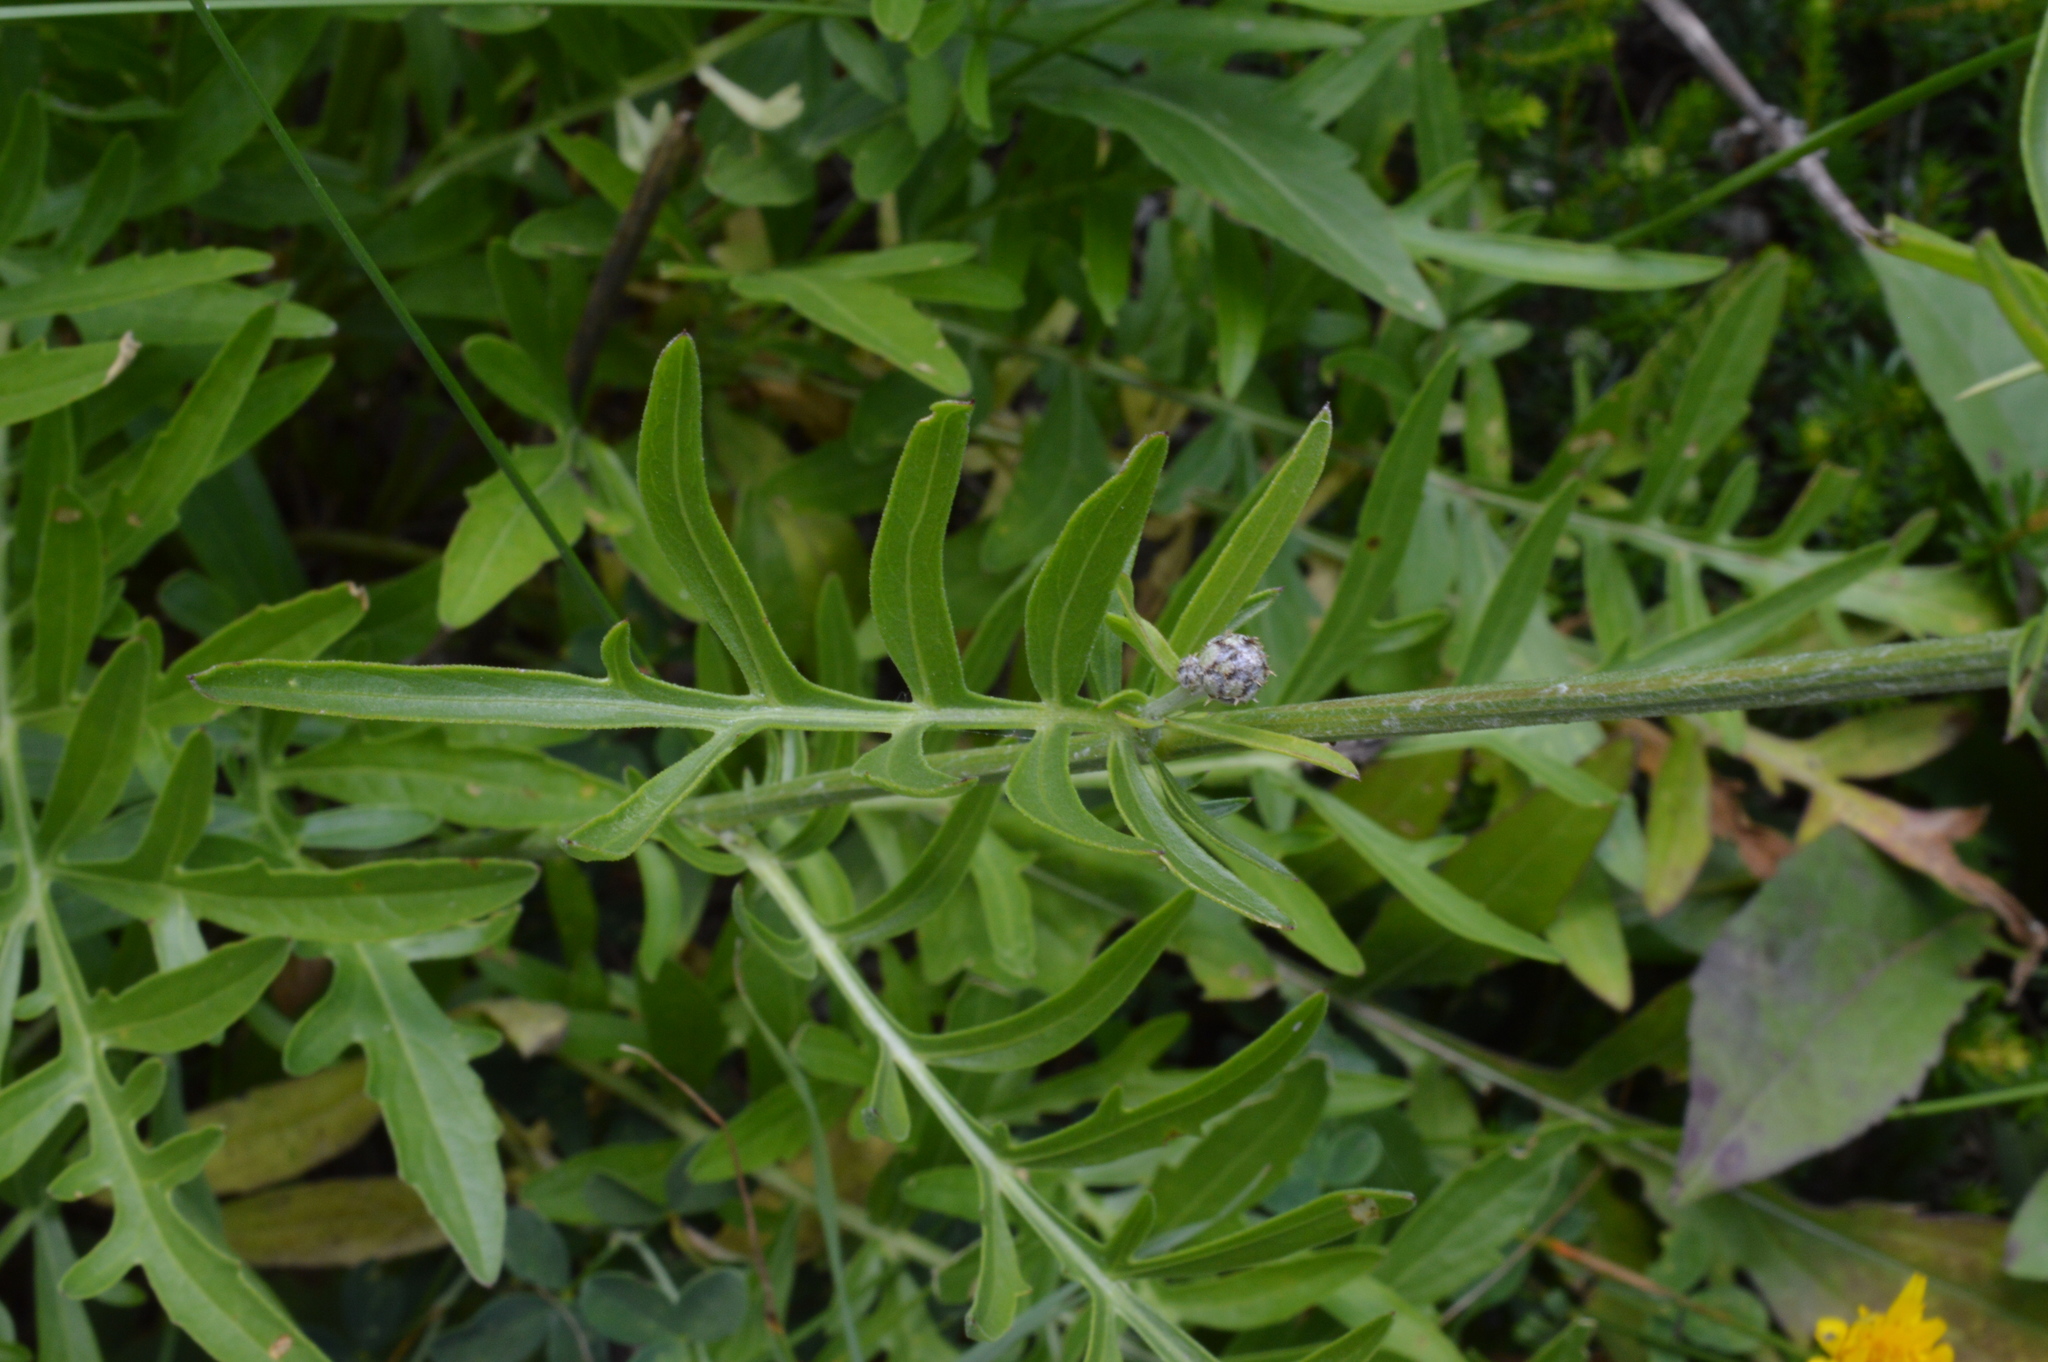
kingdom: Plantae
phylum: Tracheophyta
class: Magnoliopsida
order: Asterales
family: Asteraceae
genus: Centaurea
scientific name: Centaurea scabiosa
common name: Greater knapweed
